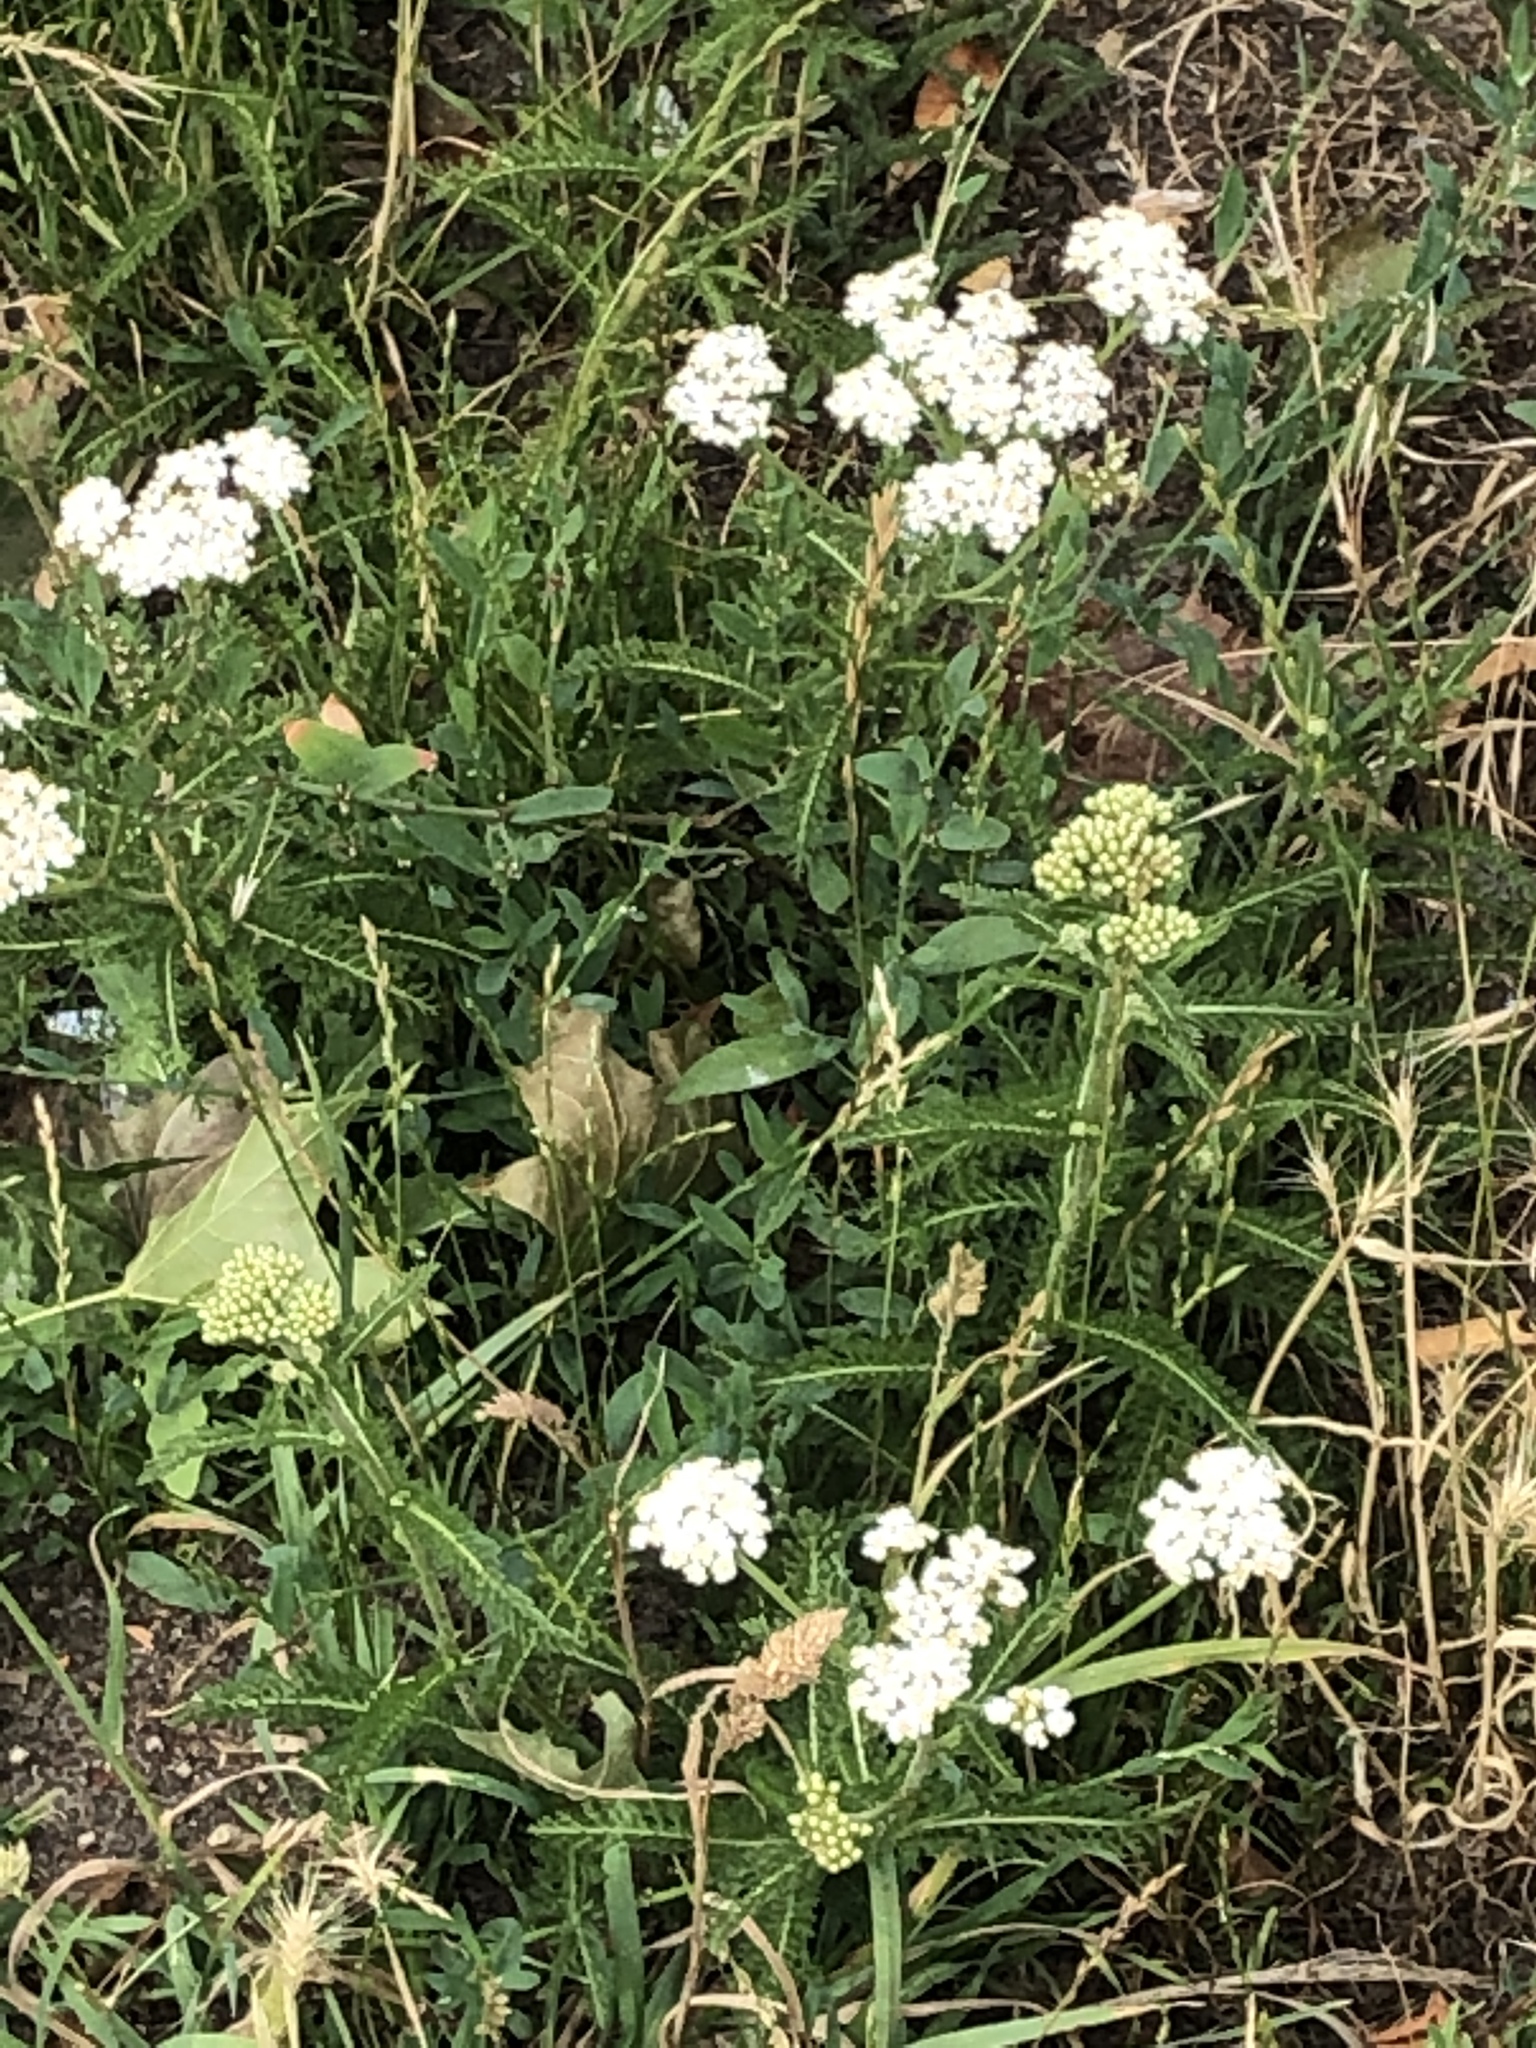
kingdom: Plantae
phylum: Tracheophyta
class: Magnoliopsida
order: Asterales
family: Asteraceae
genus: Achillea
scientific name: Achillea millefolium
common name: Yarrow
